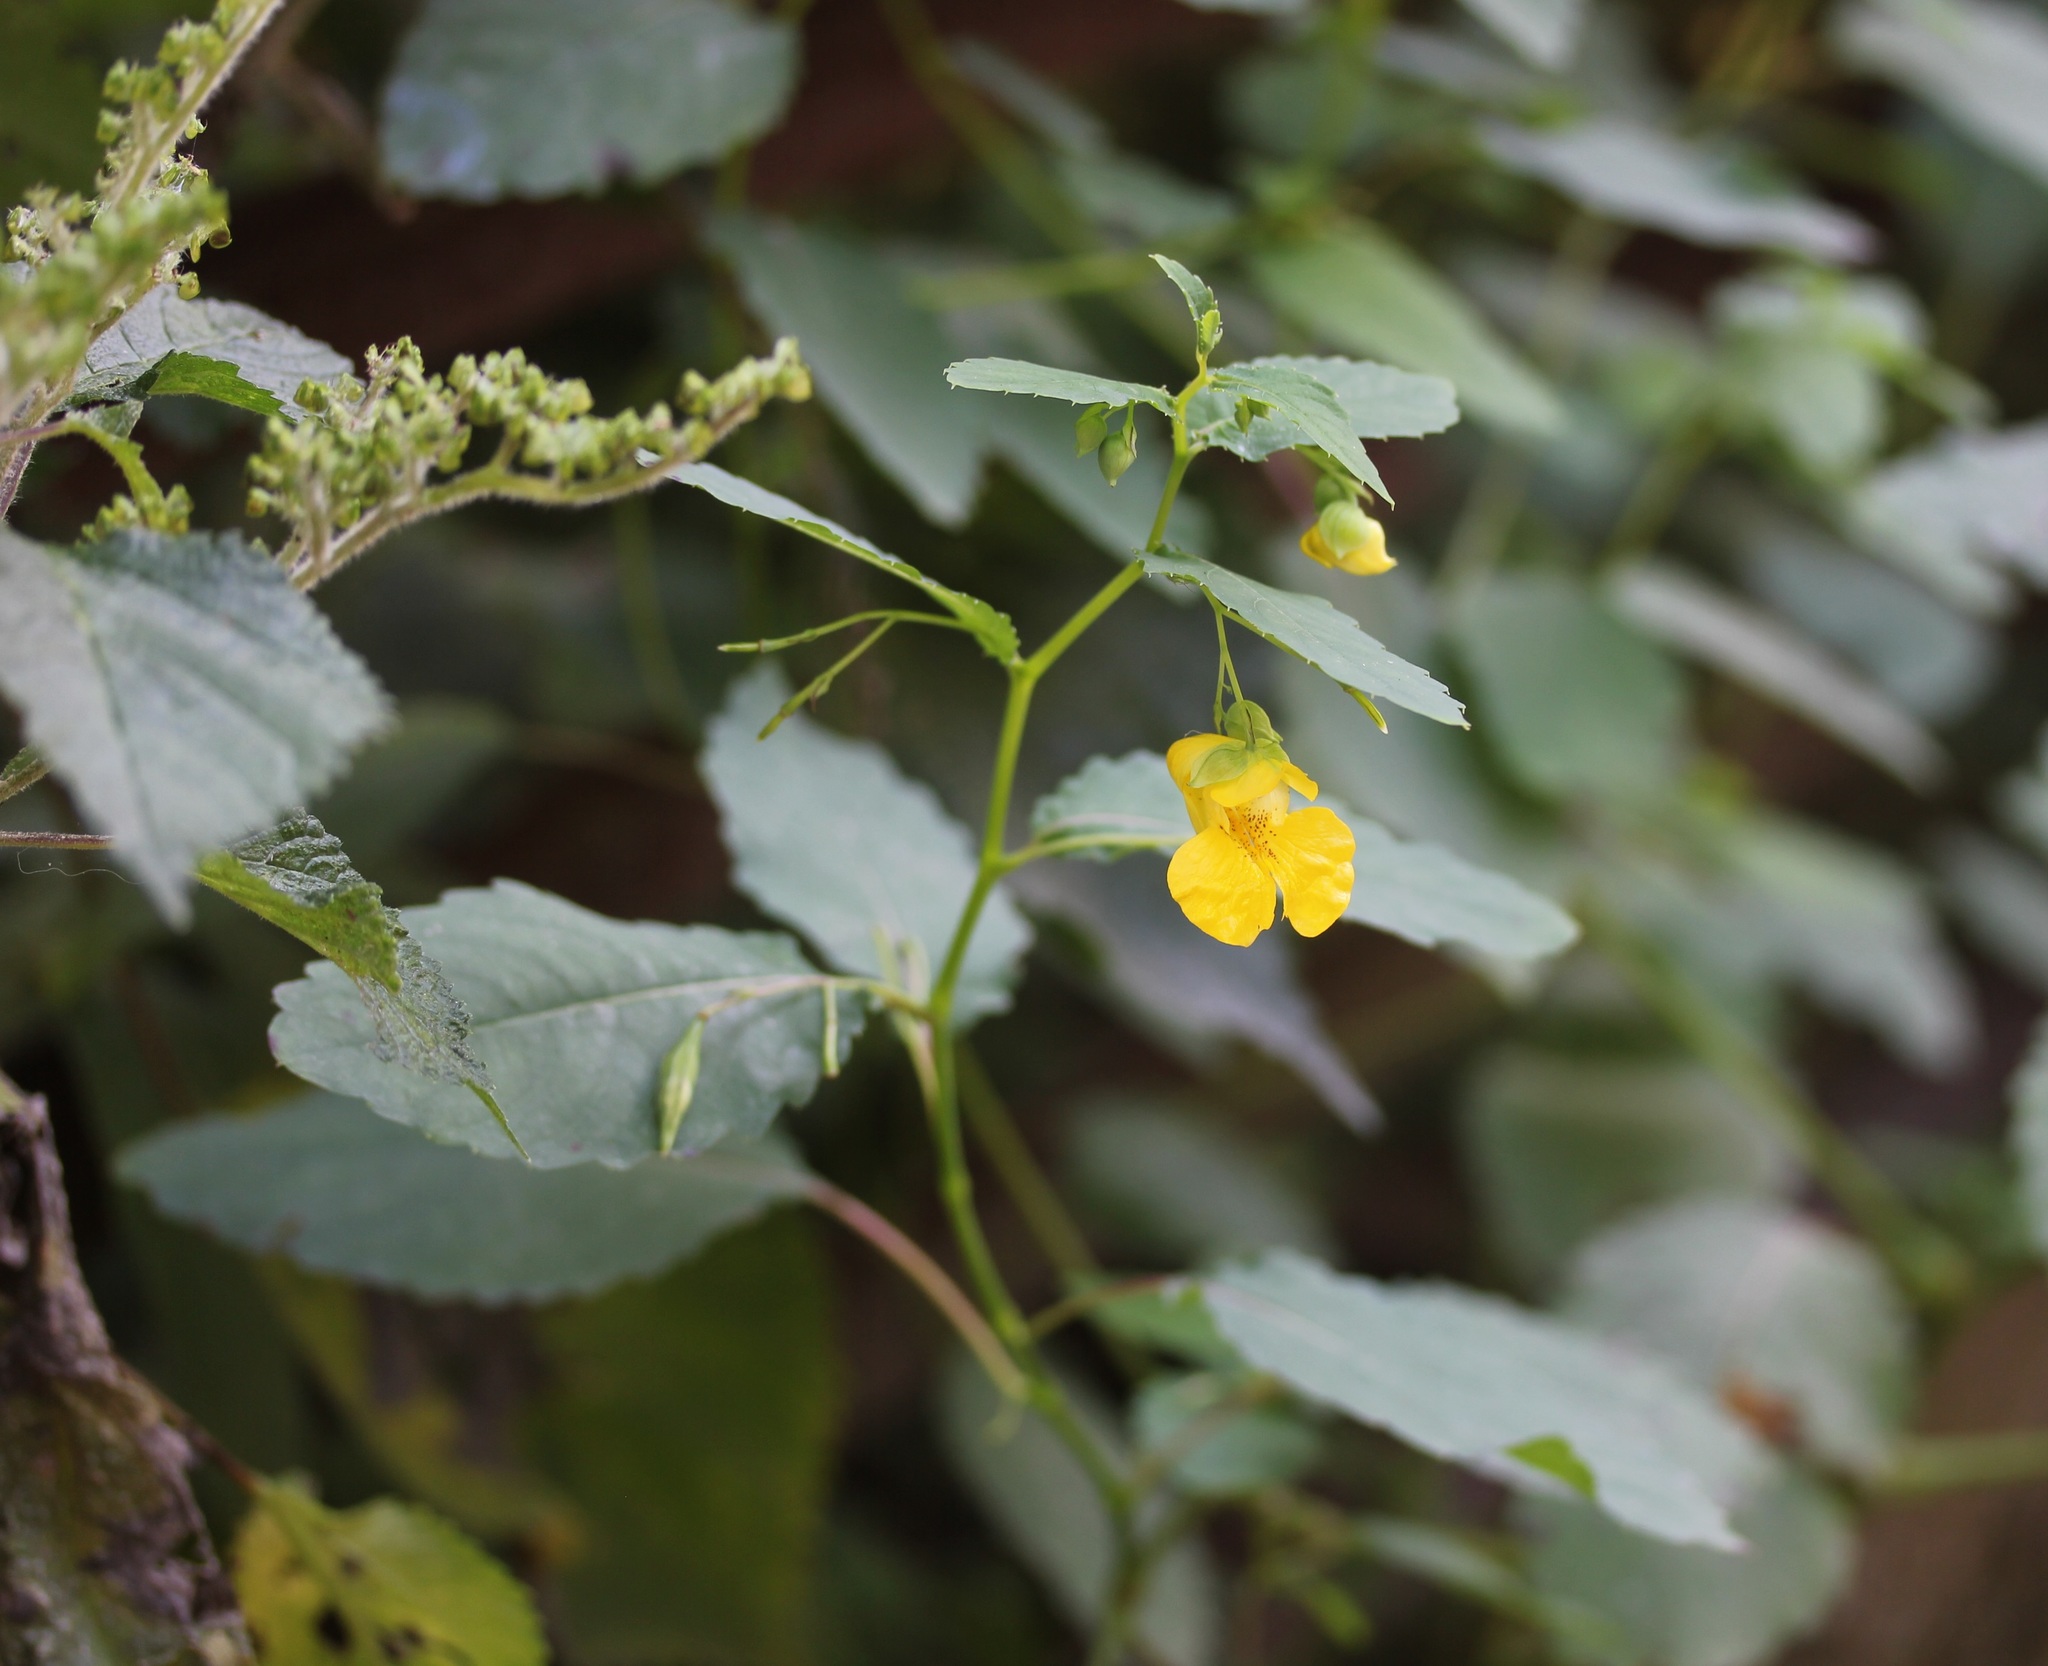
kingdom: Plantae
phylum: Tracheophyta
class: Magnoliopsida
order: Ericales
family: Balsaminaceae
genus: Impatiens
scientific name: Impatiens pallida
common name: Pale snapweed
